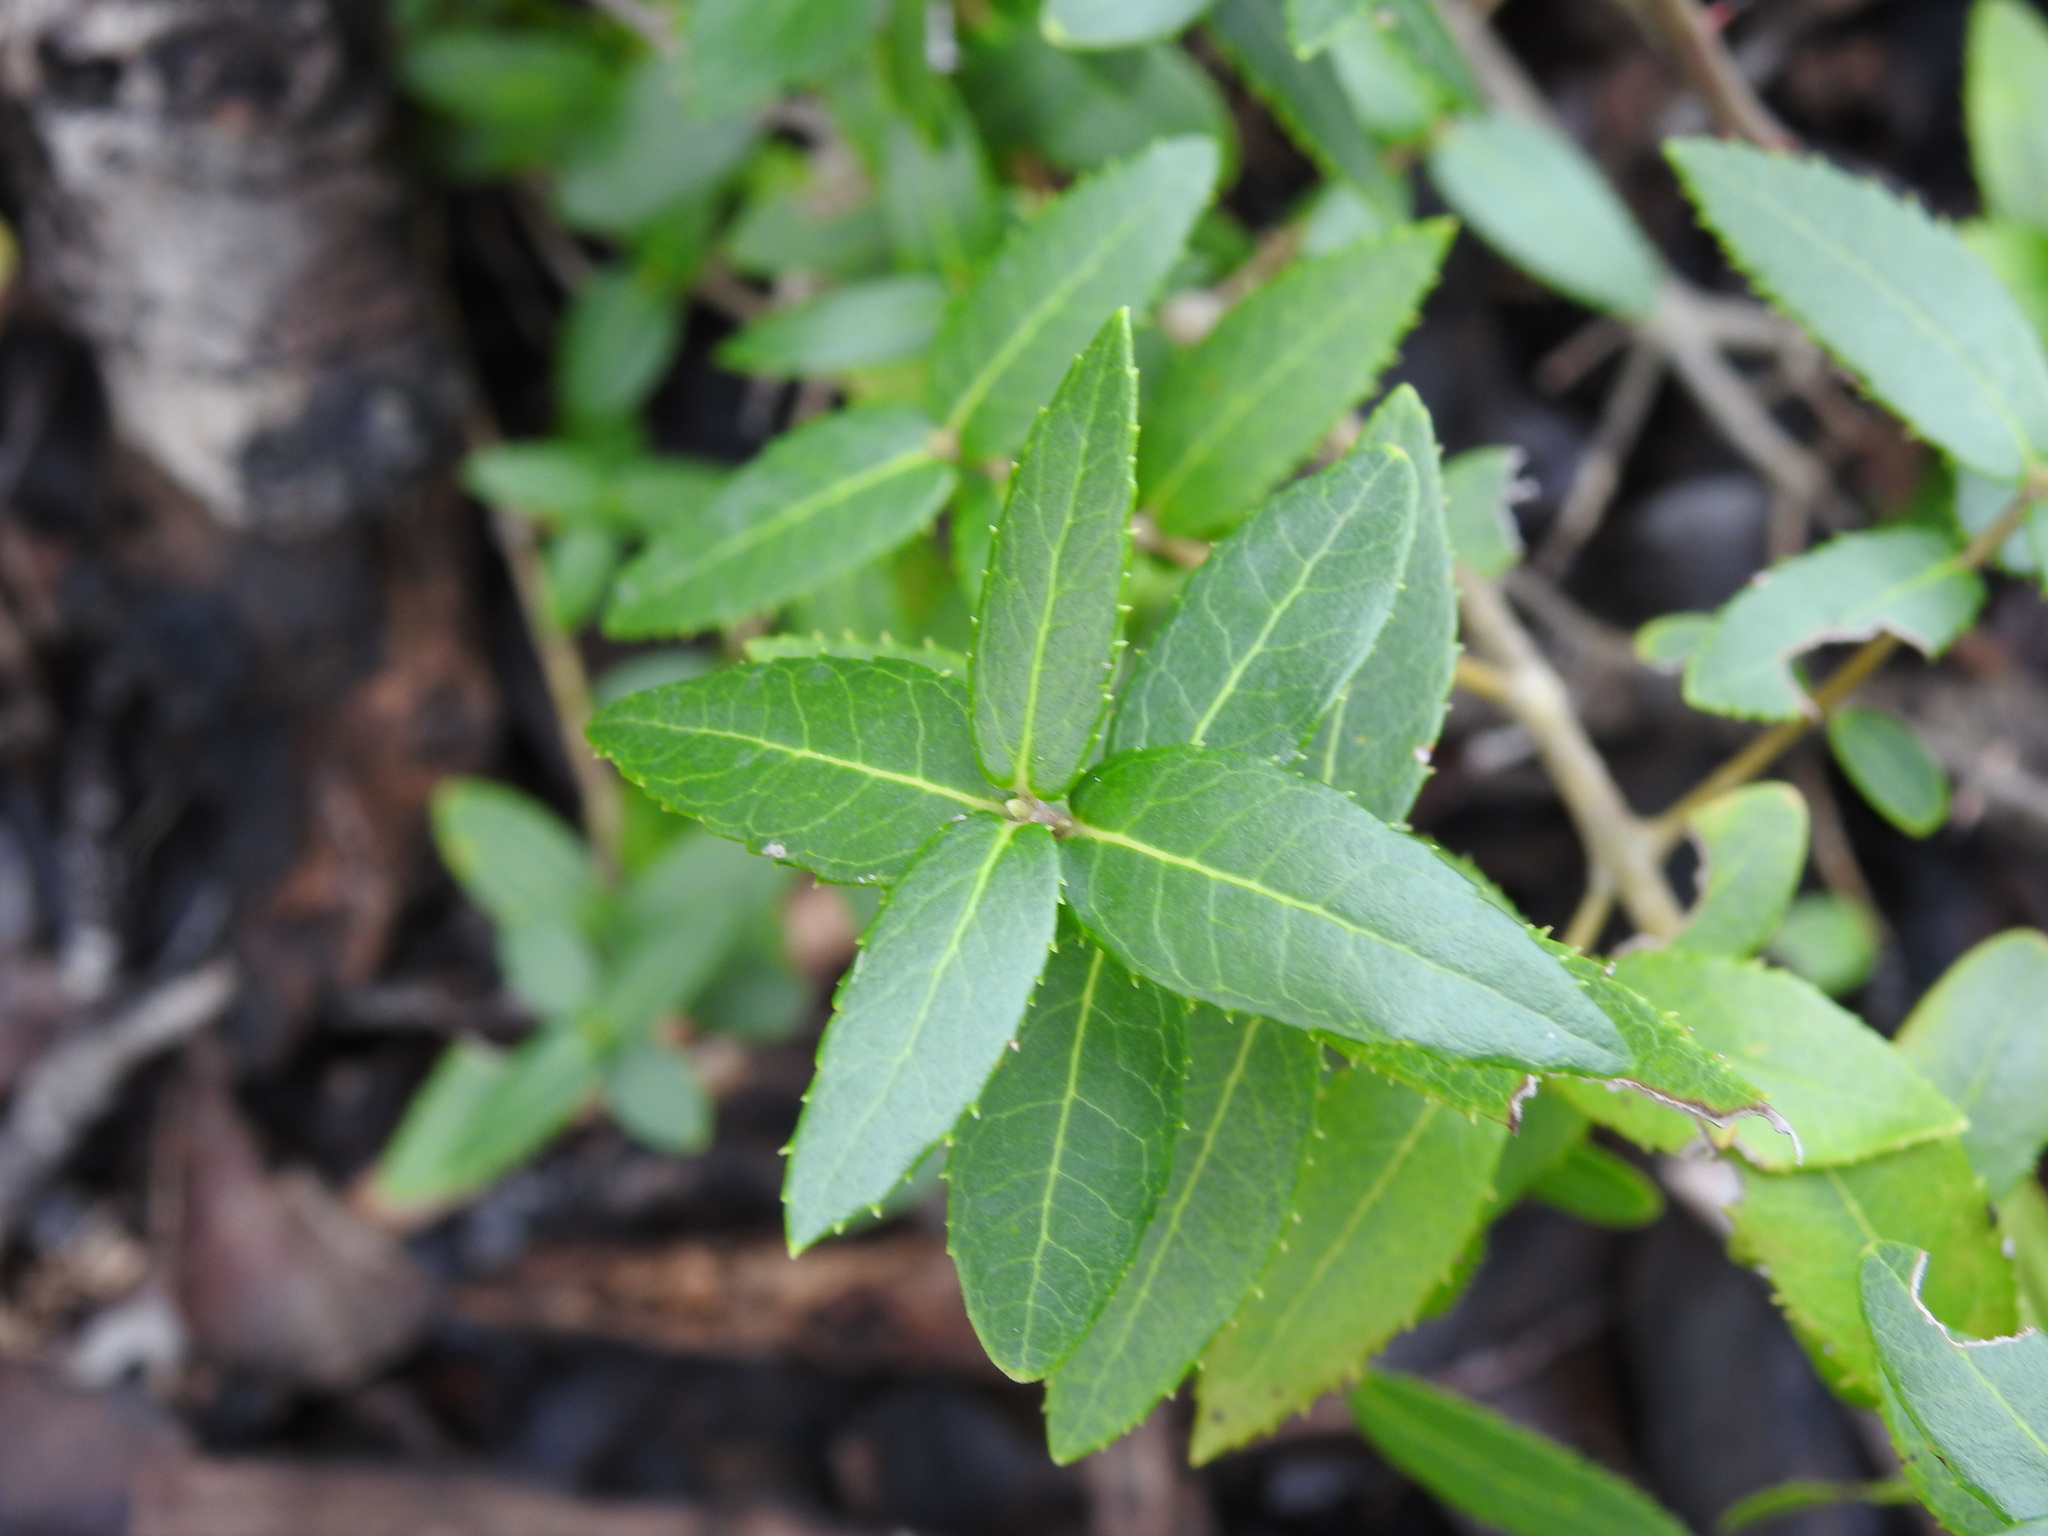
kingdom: Plantae
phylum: Tracheophyta
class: Magnoliopsida
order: Lamiales
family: Oleaceae
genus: Phillyrea
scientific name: Phillyrea latifolia
